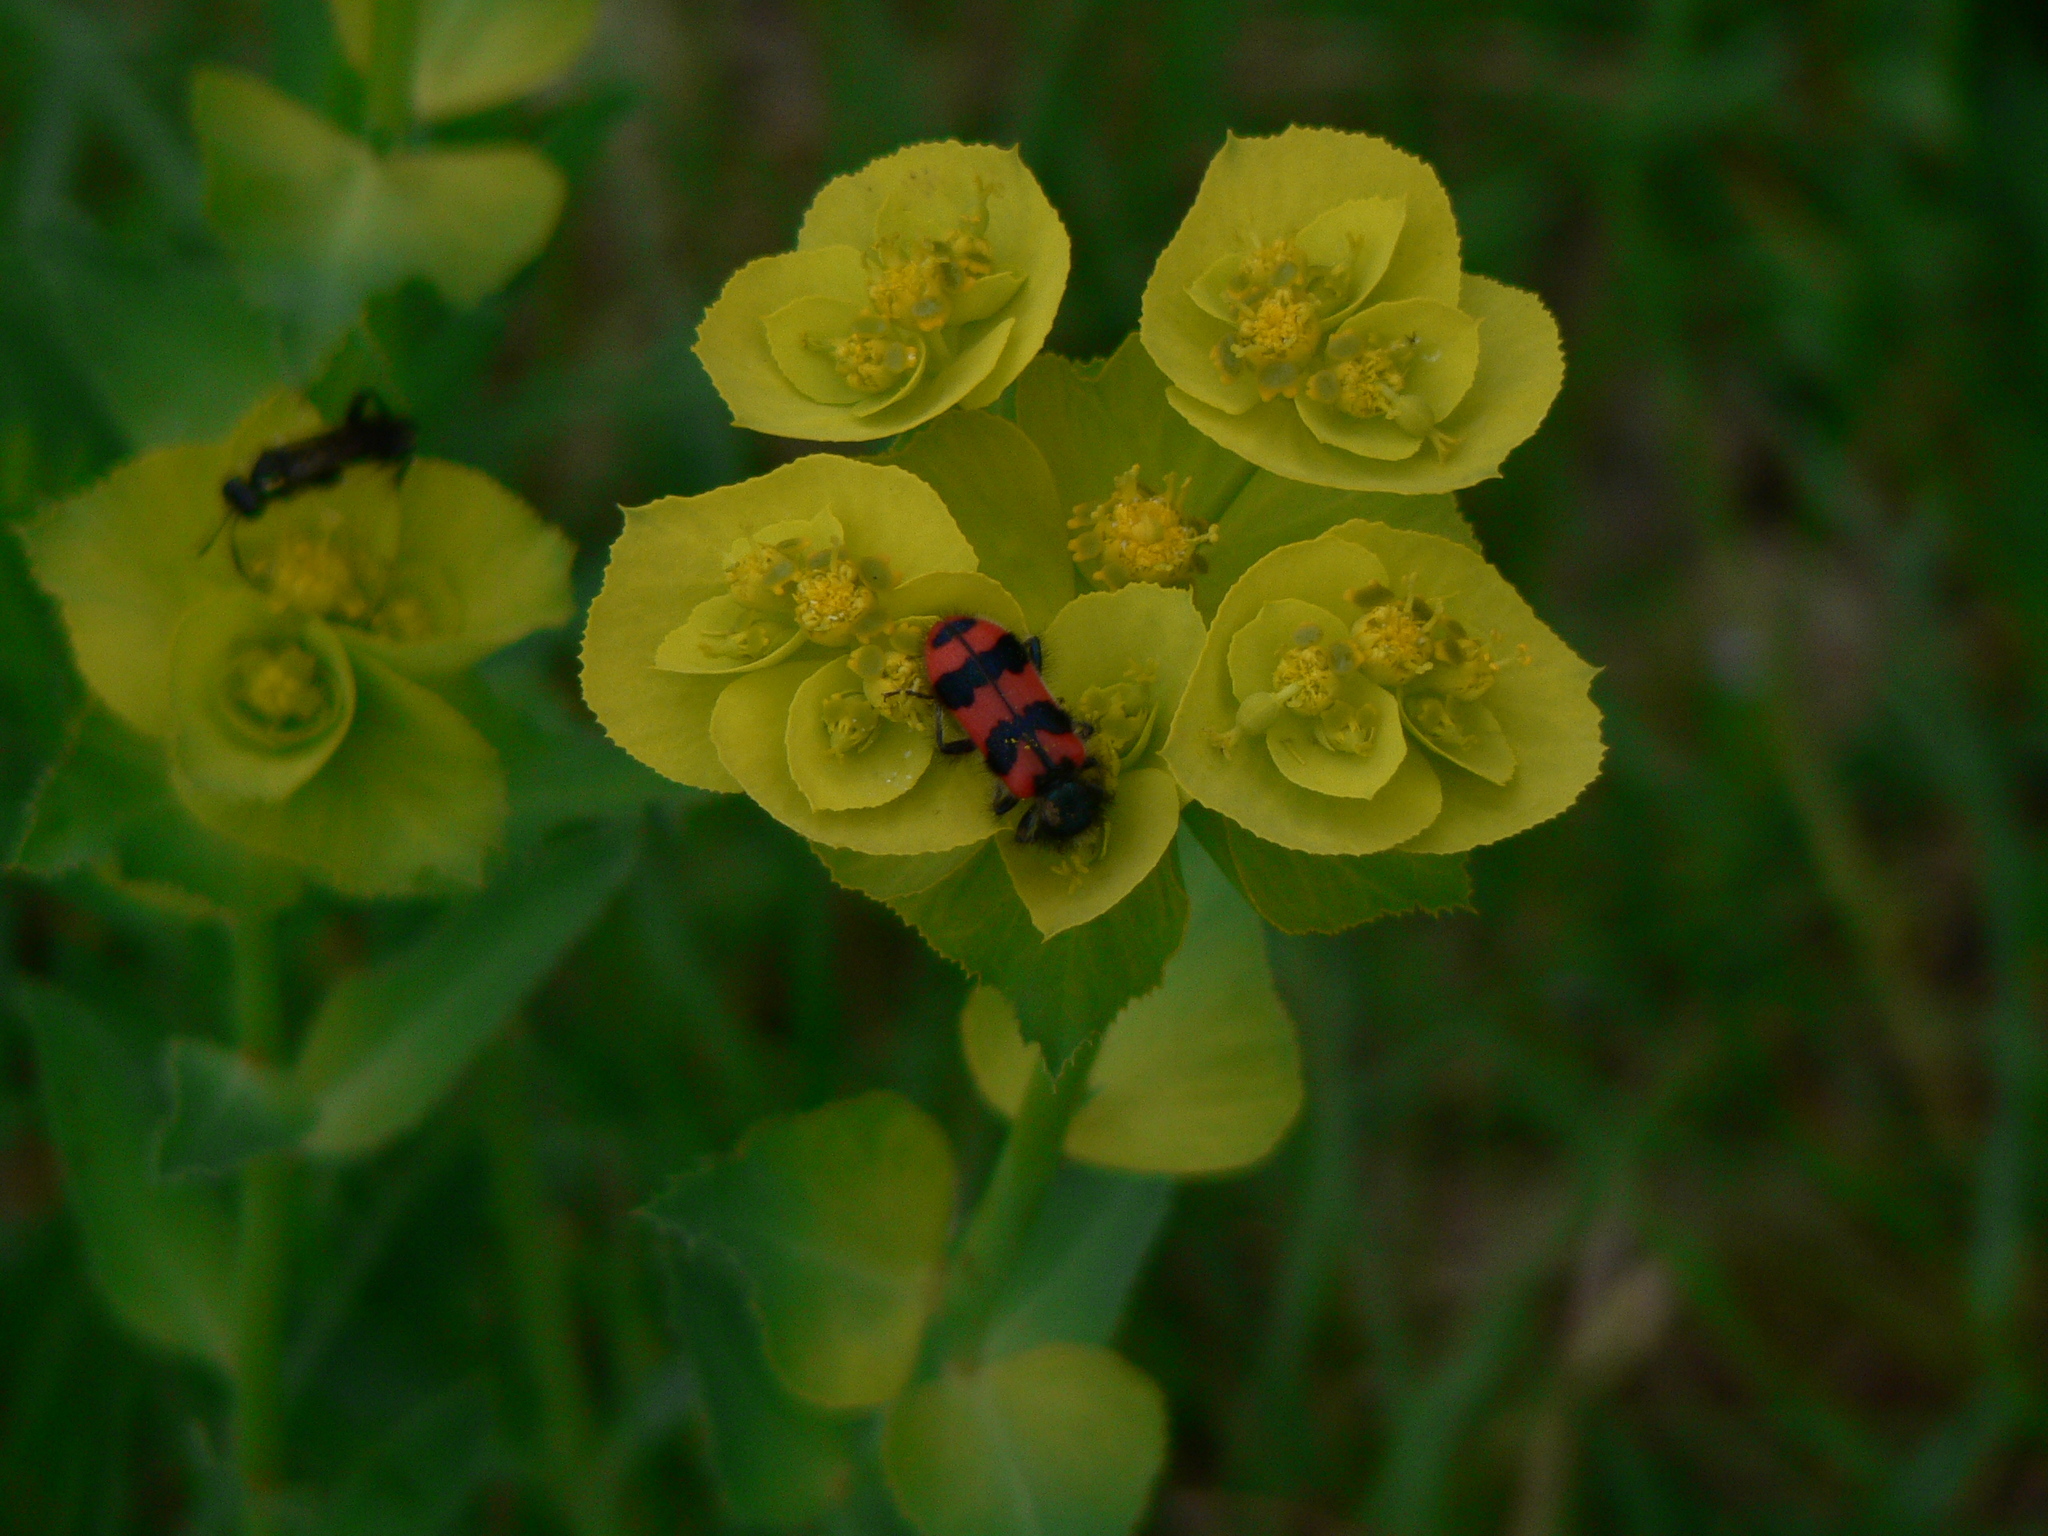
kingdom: Animalia
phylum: Arthropoda
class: Insecta
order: Coleoptera
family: Cleridae
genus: Trichodes
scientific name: Trichodes alvearius
